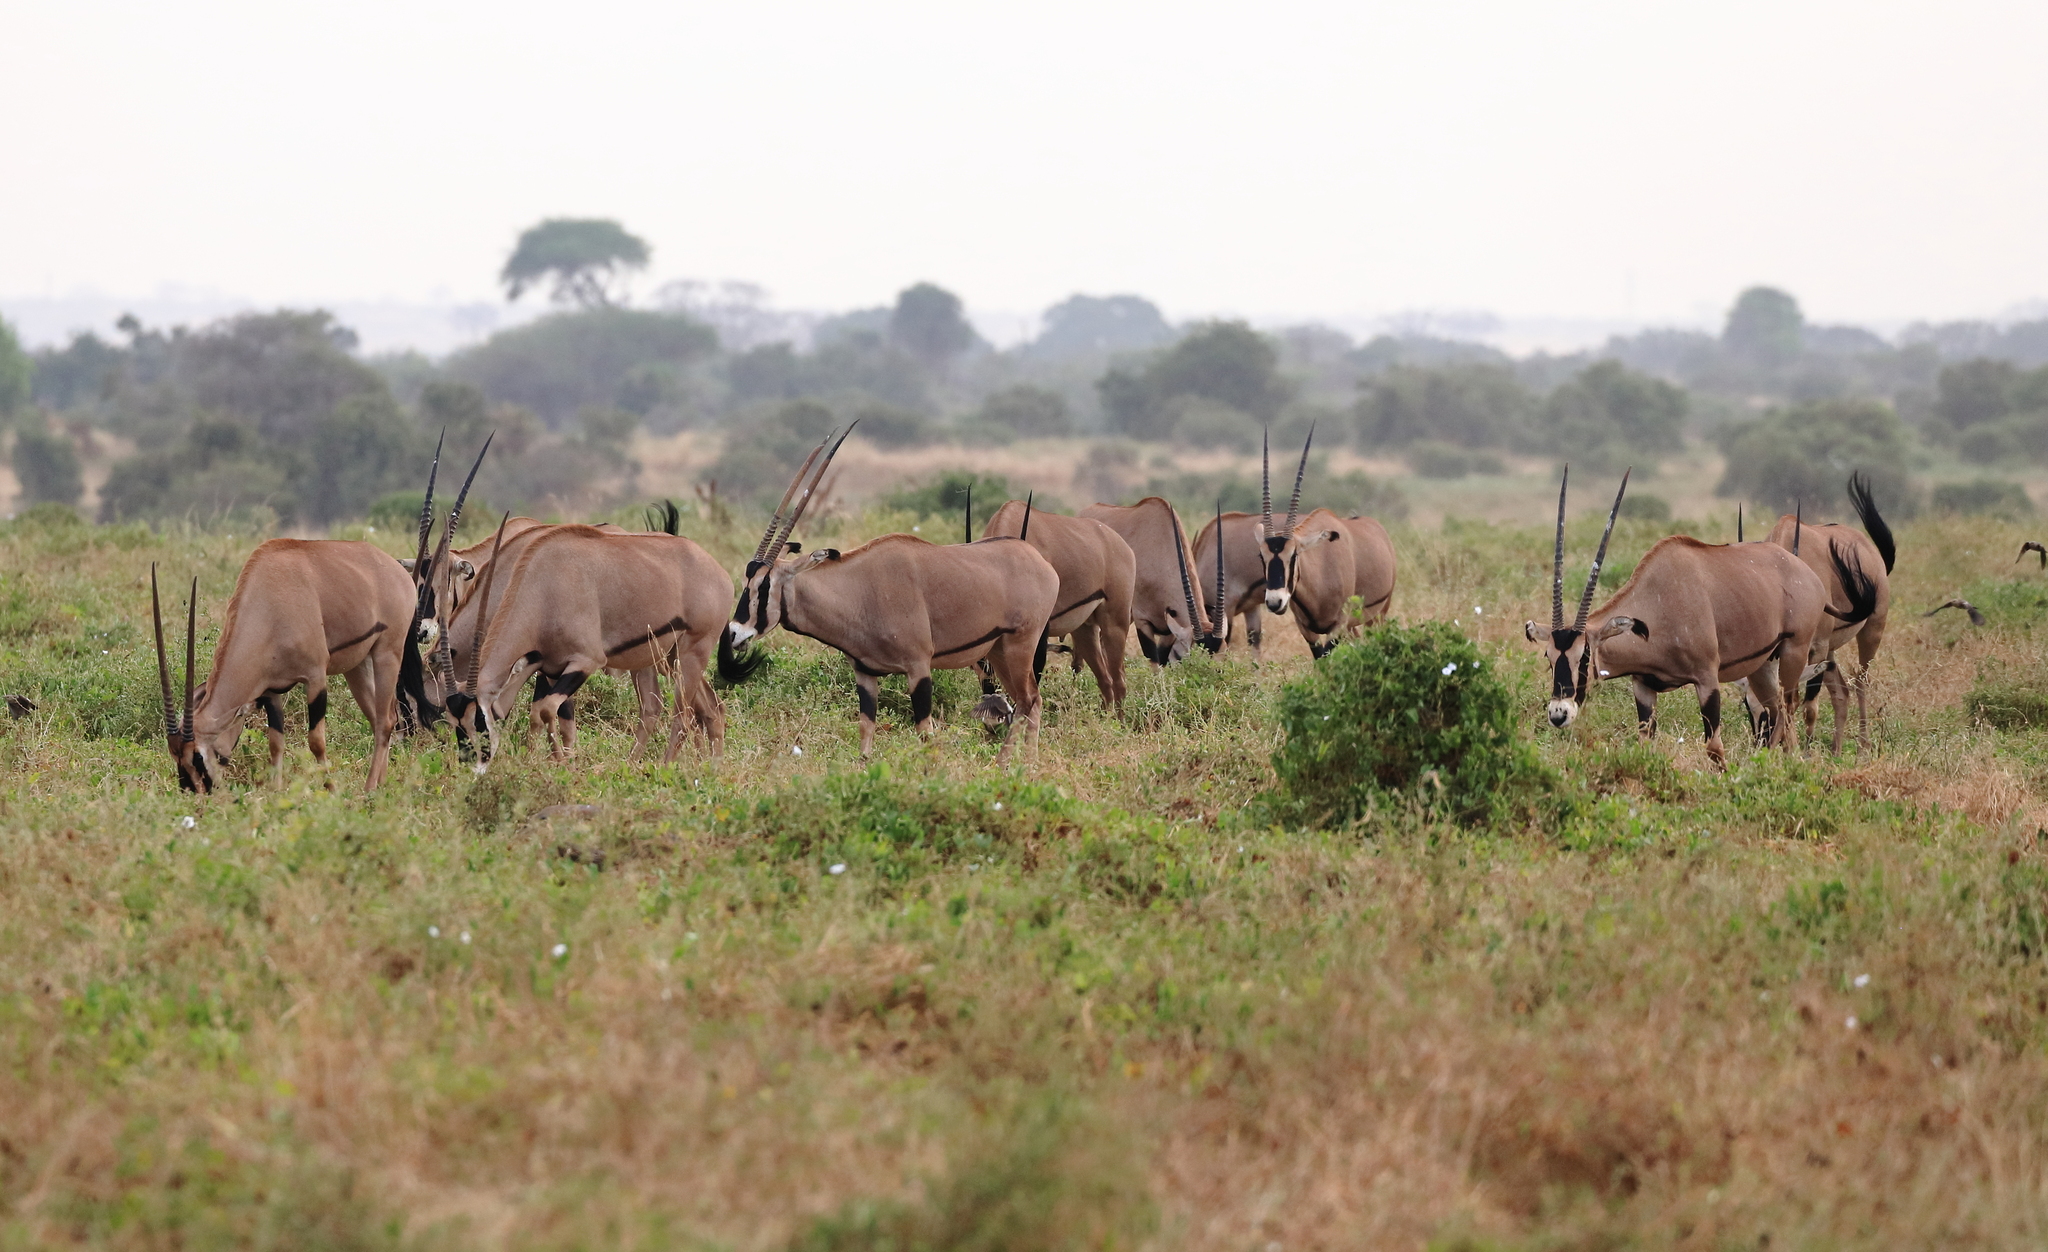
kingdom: Animalia
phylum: Chordata
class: Mammalia
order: Artiodactyla
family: Bovidae
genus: Oryx
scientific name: Oryx beisa
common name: Beisa
